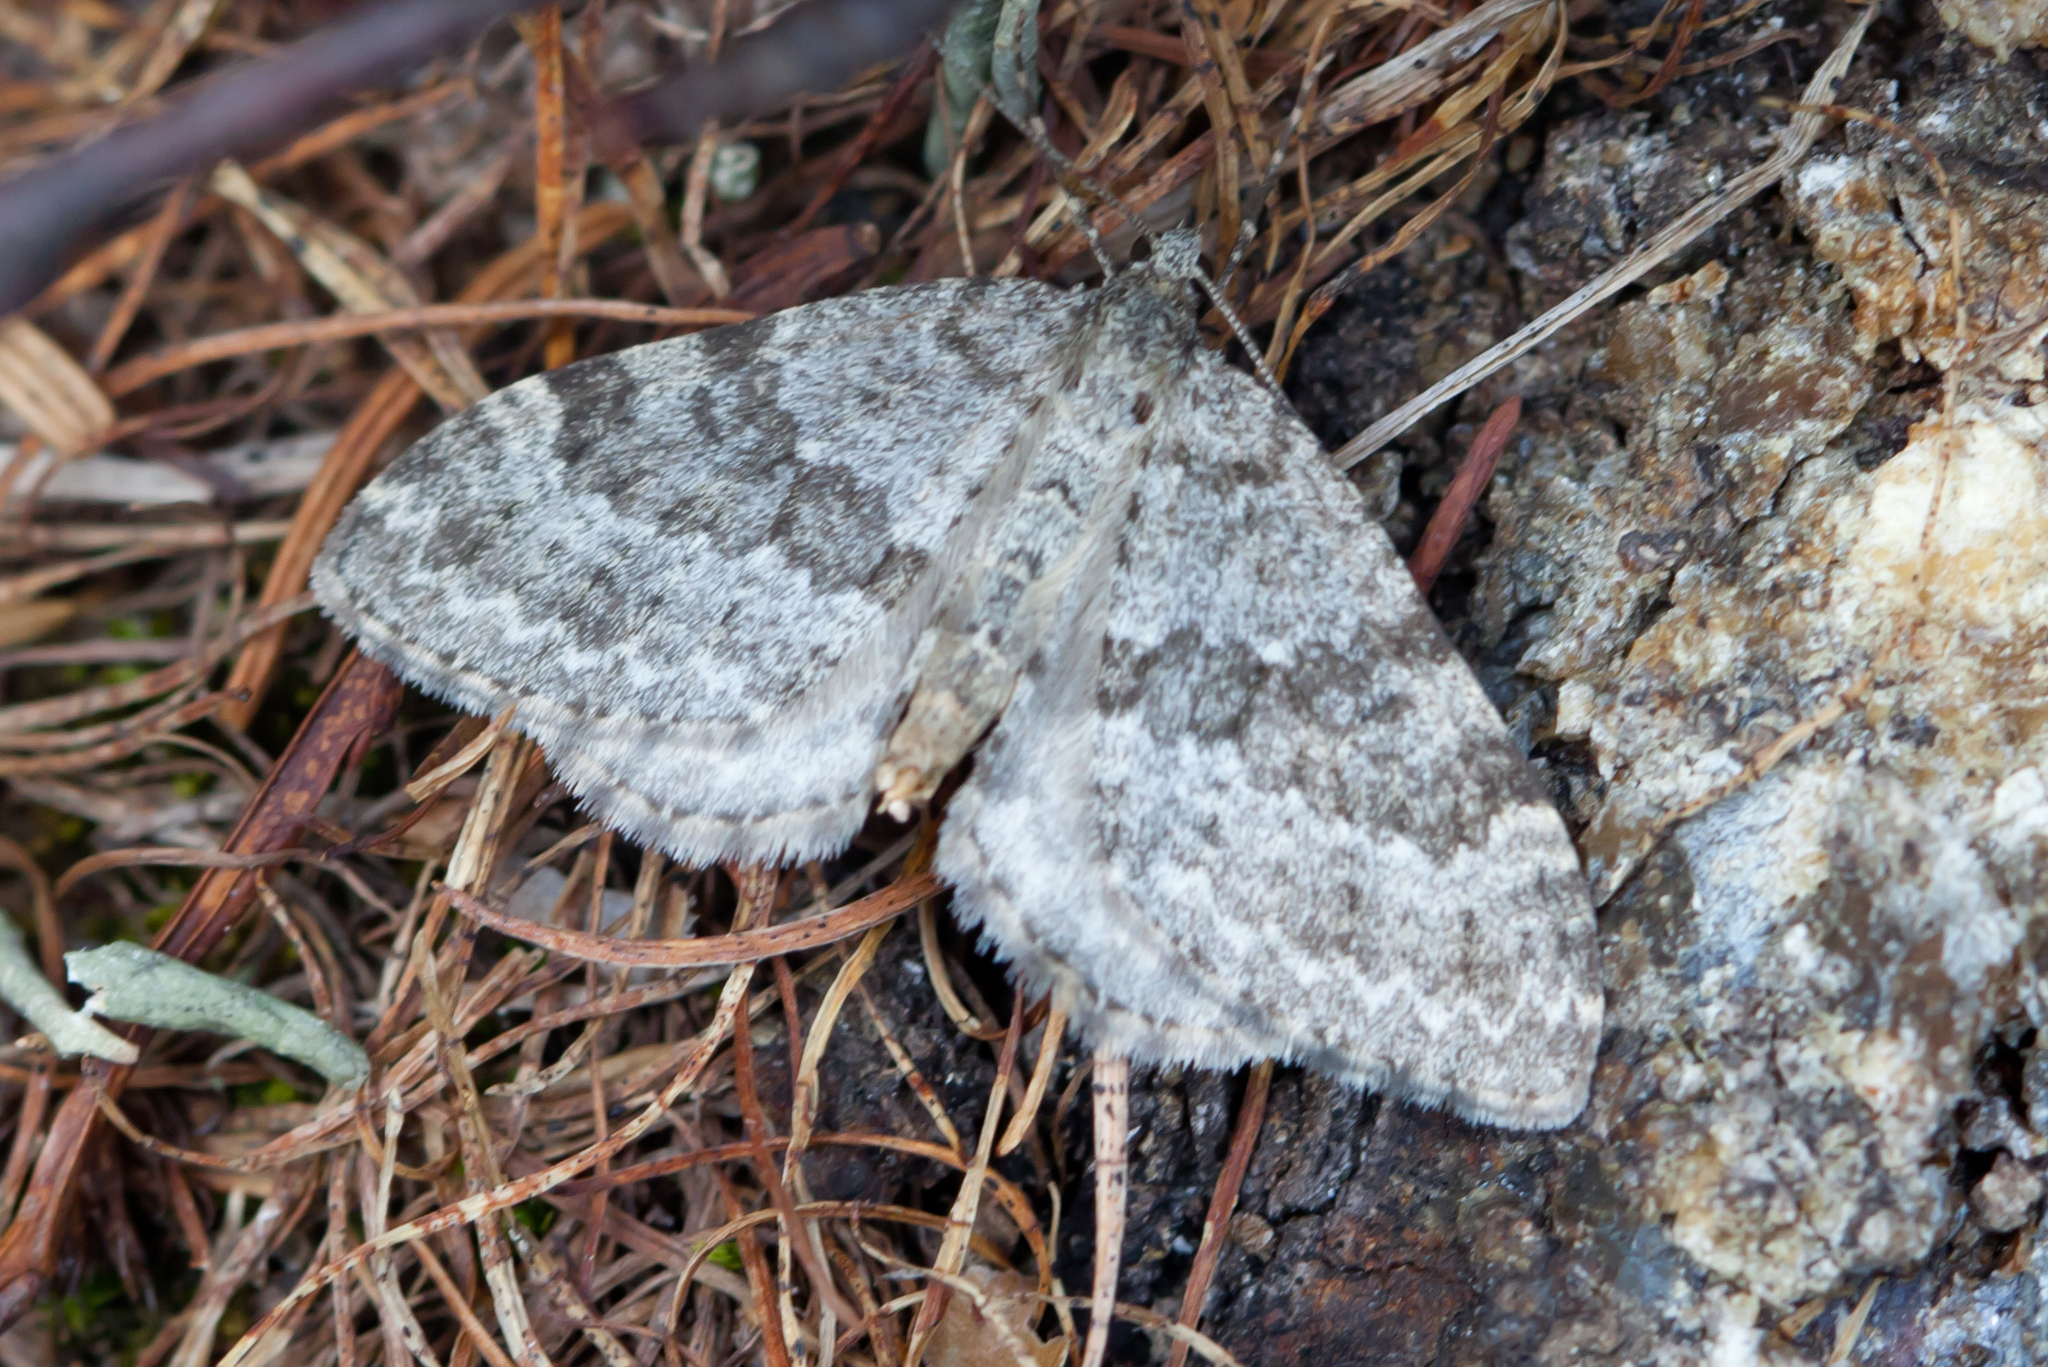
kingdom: Animalia
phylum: Arthropoda
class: Insecta
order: Lepidoptera
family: Geometridae
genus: Entephria
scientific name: Entephria caesiata
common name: Grey mountain moth
